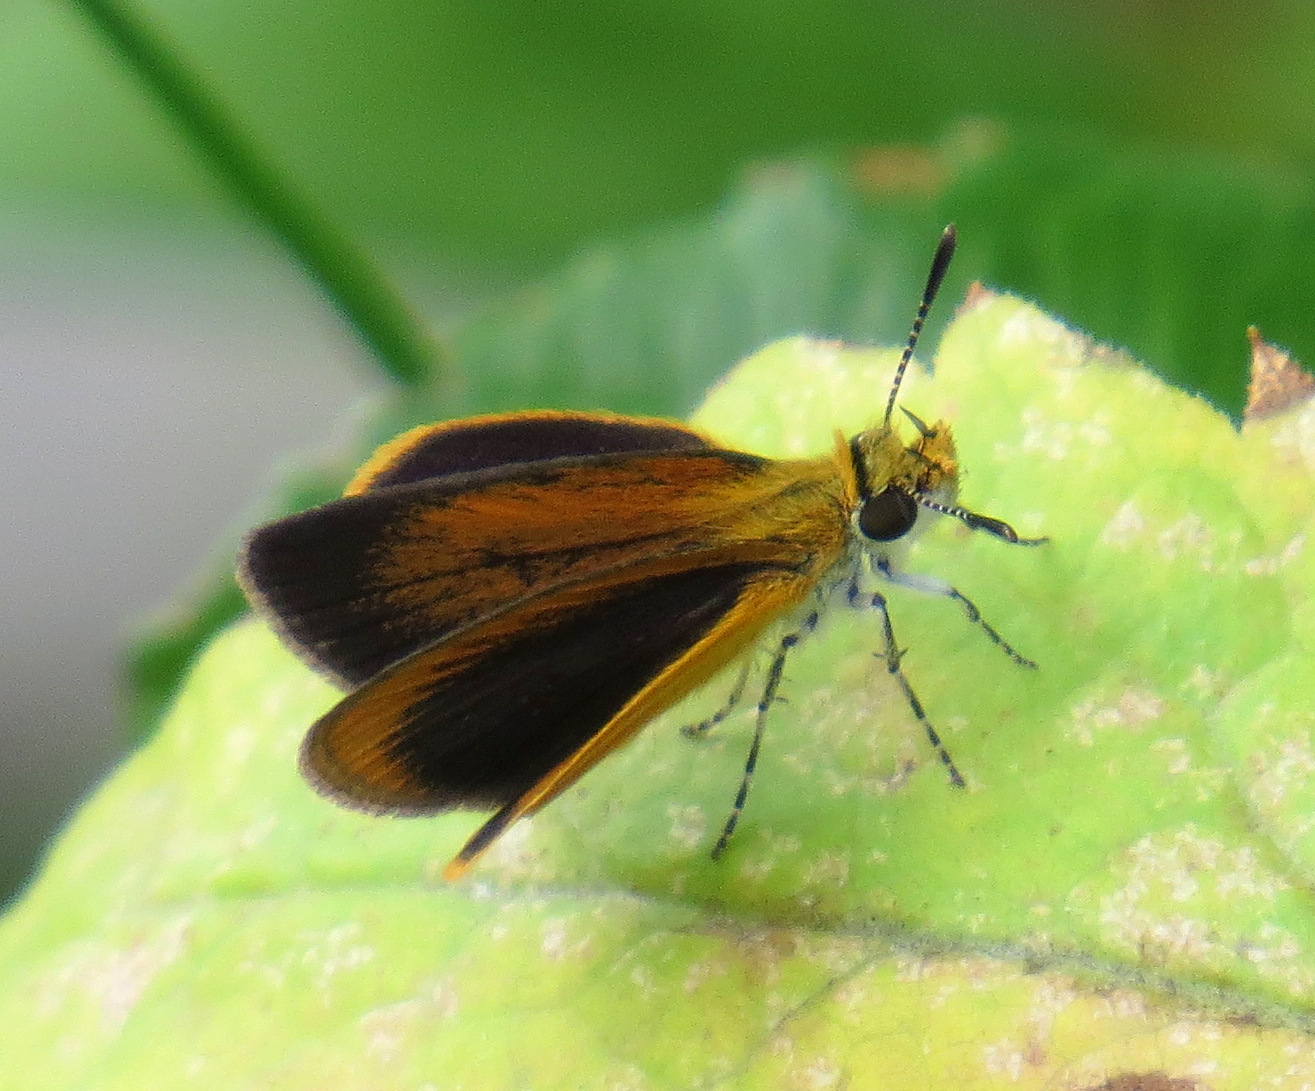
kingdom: Animalia
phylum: Arthropoda
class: Insecta
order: Lepidoptera
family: Hesperiidae
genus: Ancyloxypha
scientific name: Ancyloxypha numitor
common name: Least skipper
